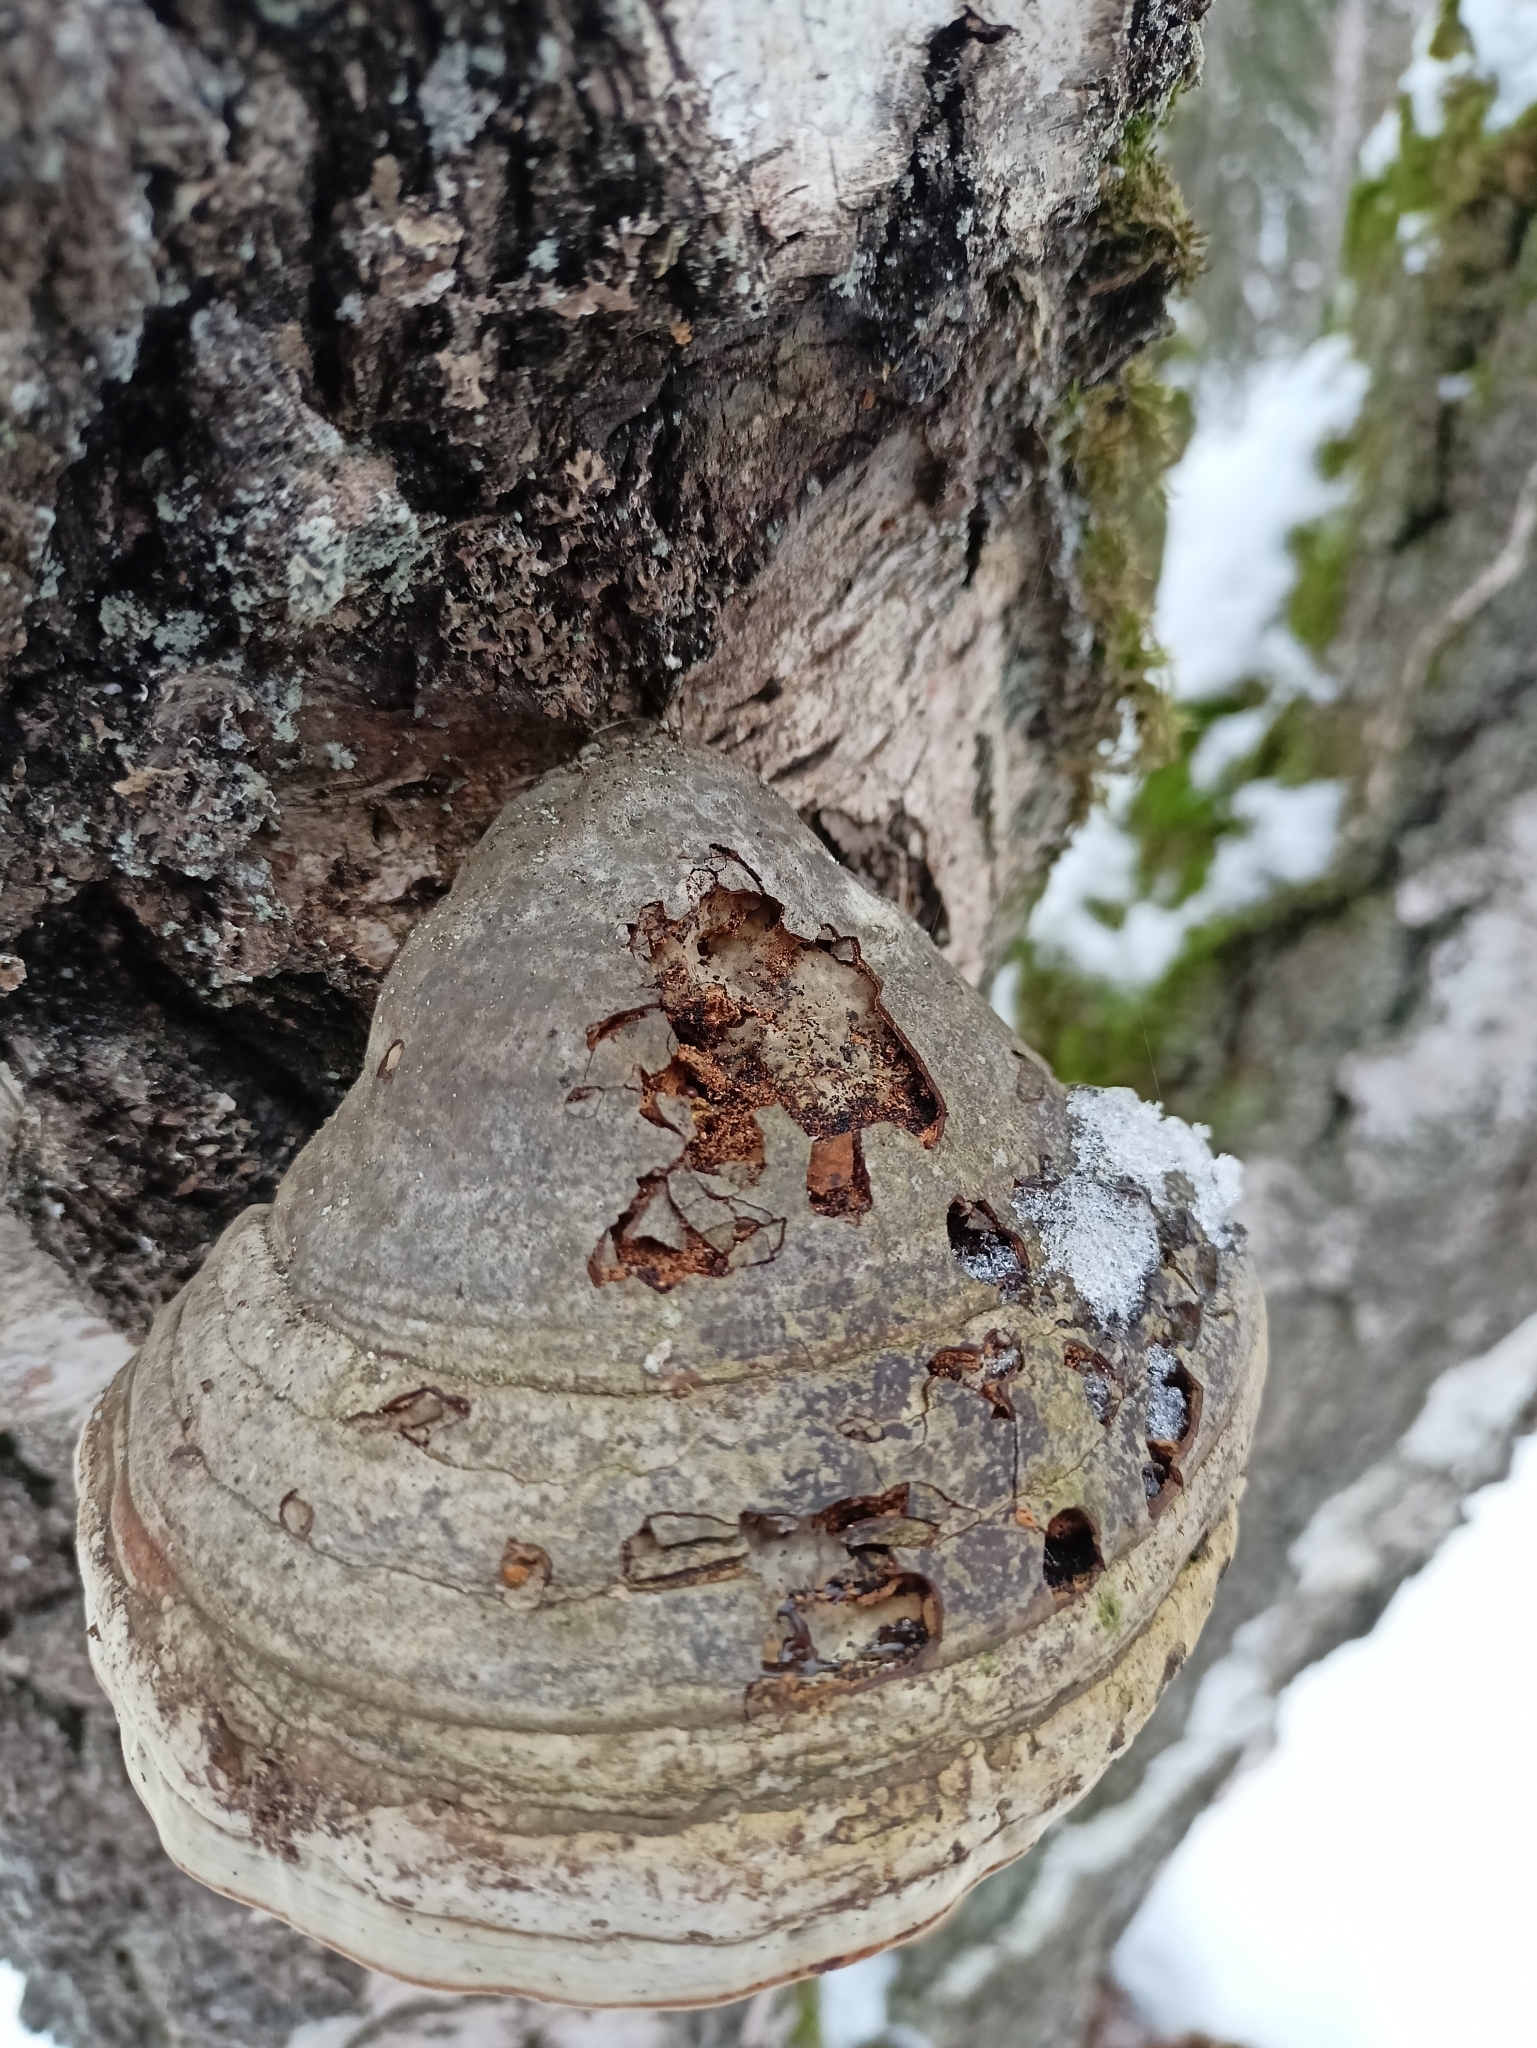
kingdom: Fungi
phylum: Basidiomycota
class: Agaricomycetes
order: Polyporales
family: Polyporaceae
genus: Fomes
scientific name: Fomes fomentarius
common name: Hoof fungus
